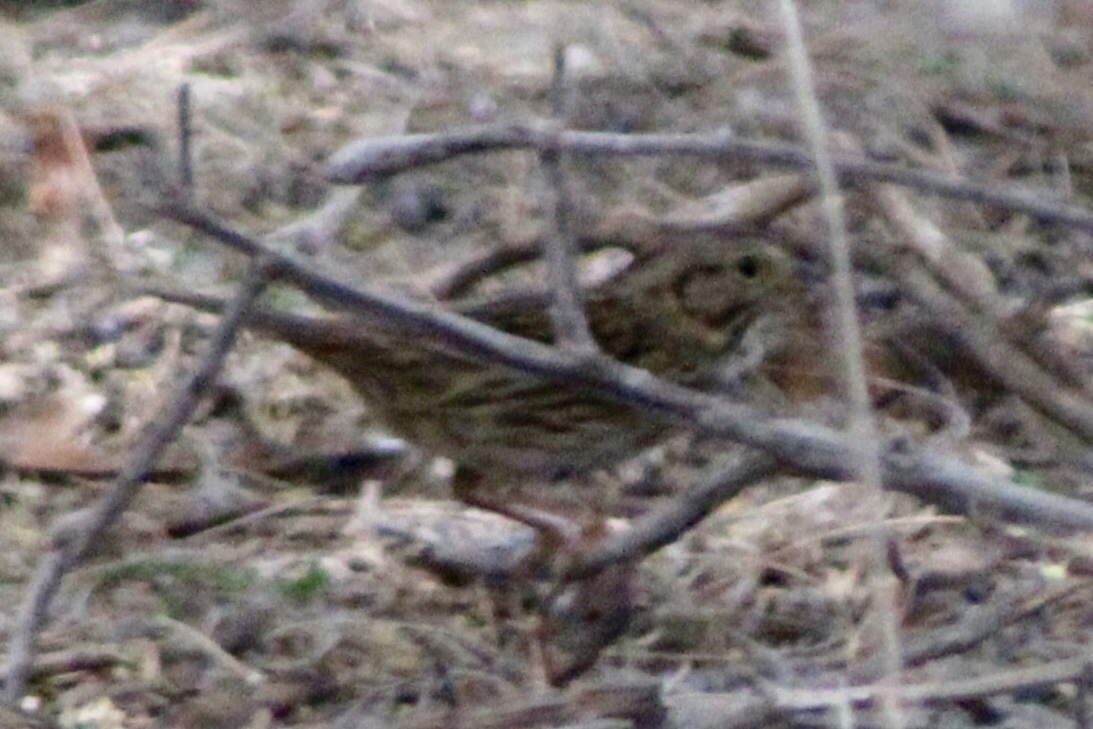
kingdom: Animalia
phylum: Chordata
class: Aves
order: Passeriformes
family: Passerellidae
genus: Melospiza
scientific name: Melospiza lincolnii
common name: Lincoln's sparrow
